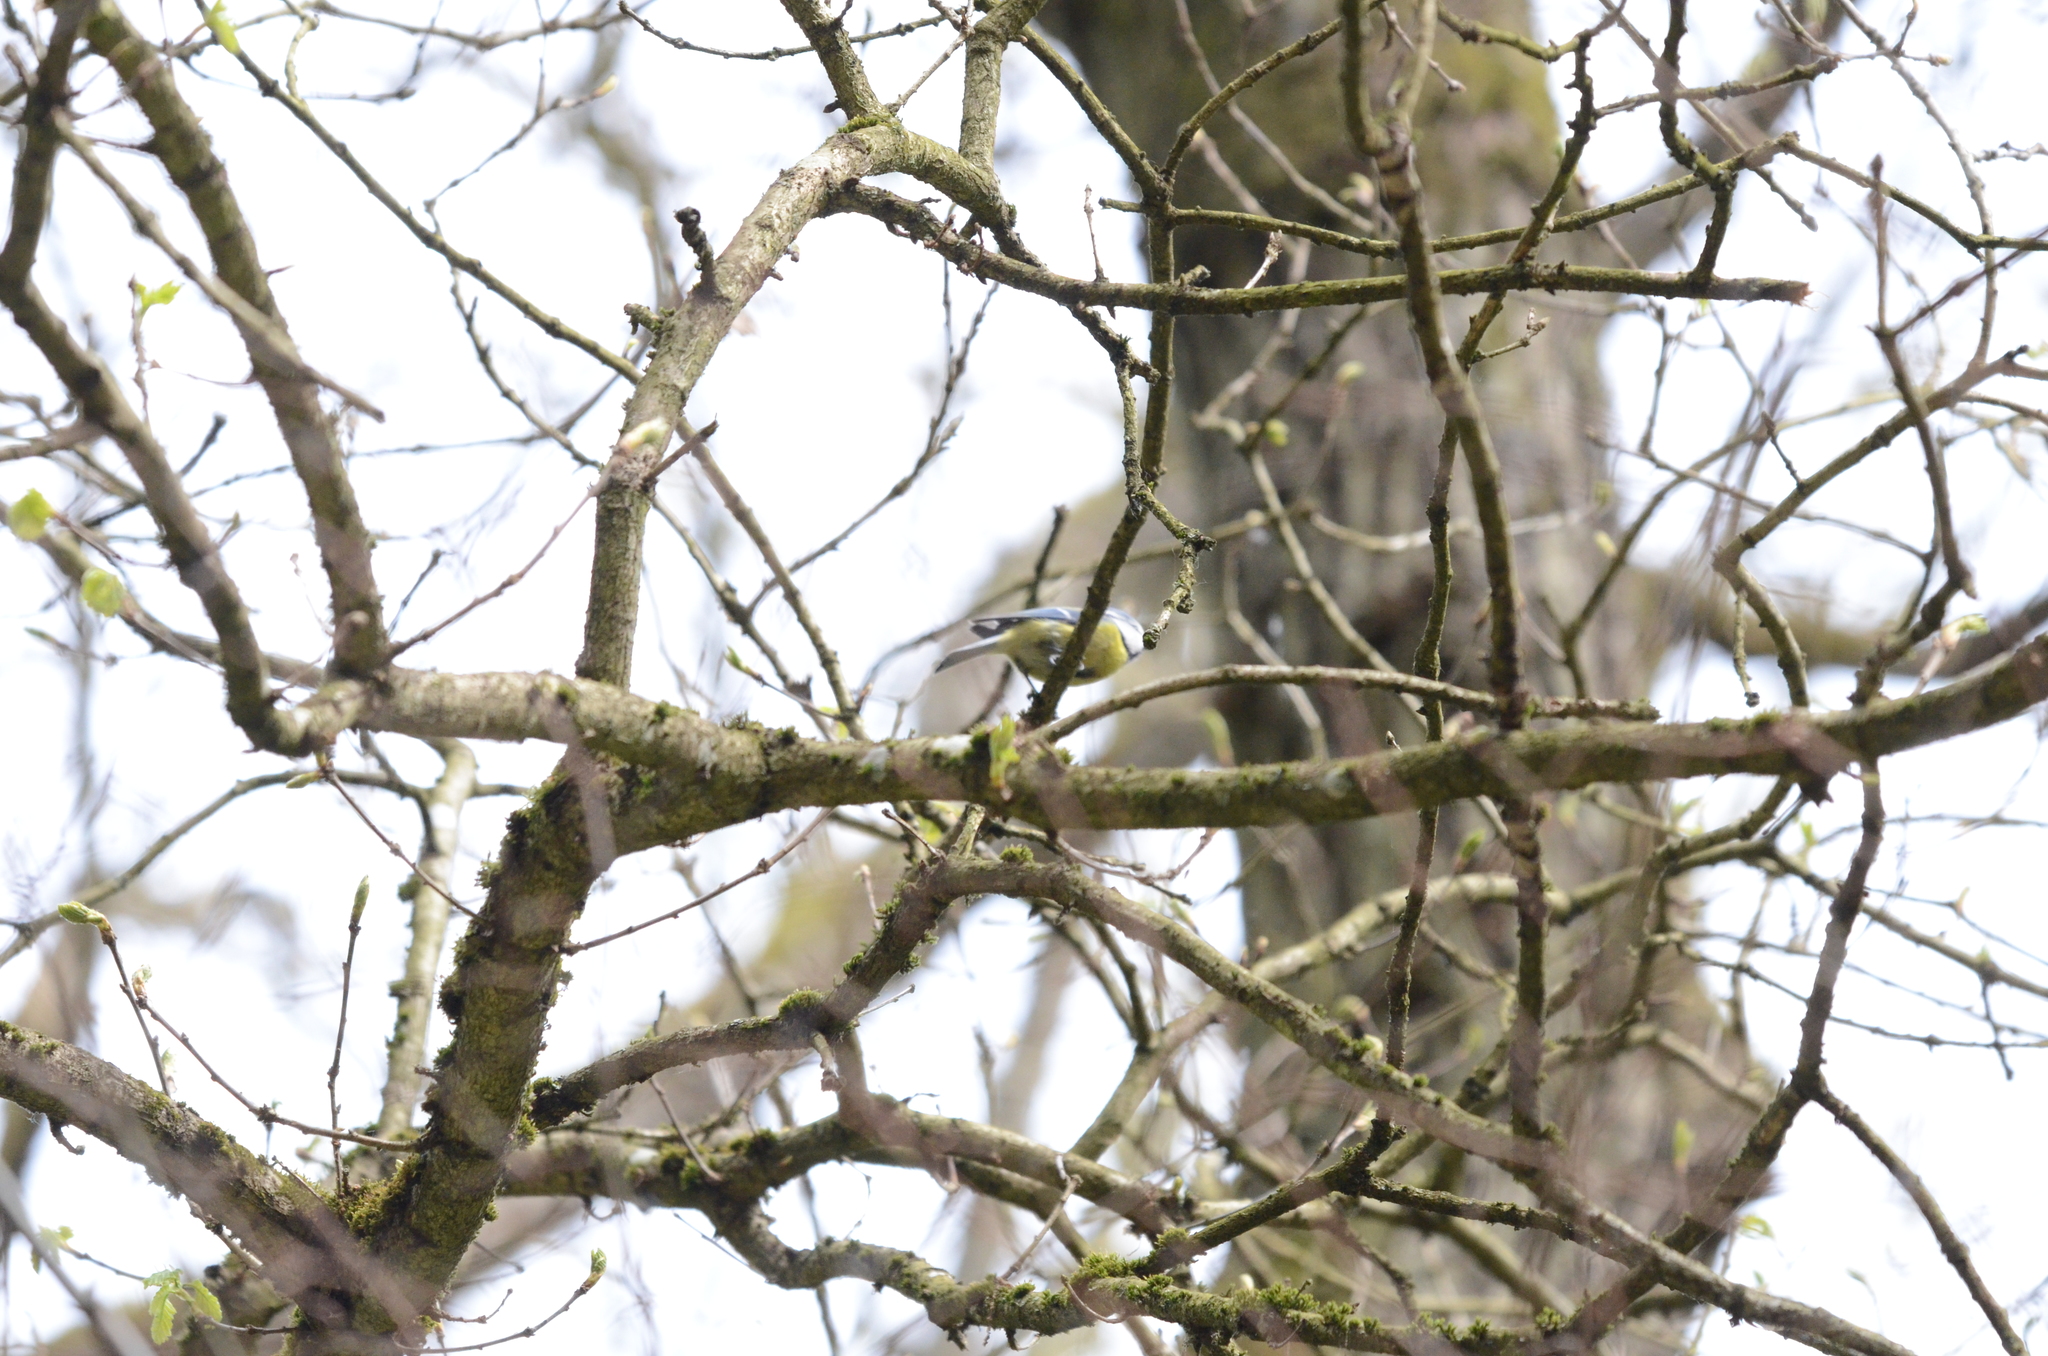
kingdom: Animalia
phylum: Chordata
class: Aves
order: Passeriformes
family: Paridae
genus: Cyanistes
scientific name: Cyanistes caeruleus
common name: Eurasian blue tit
